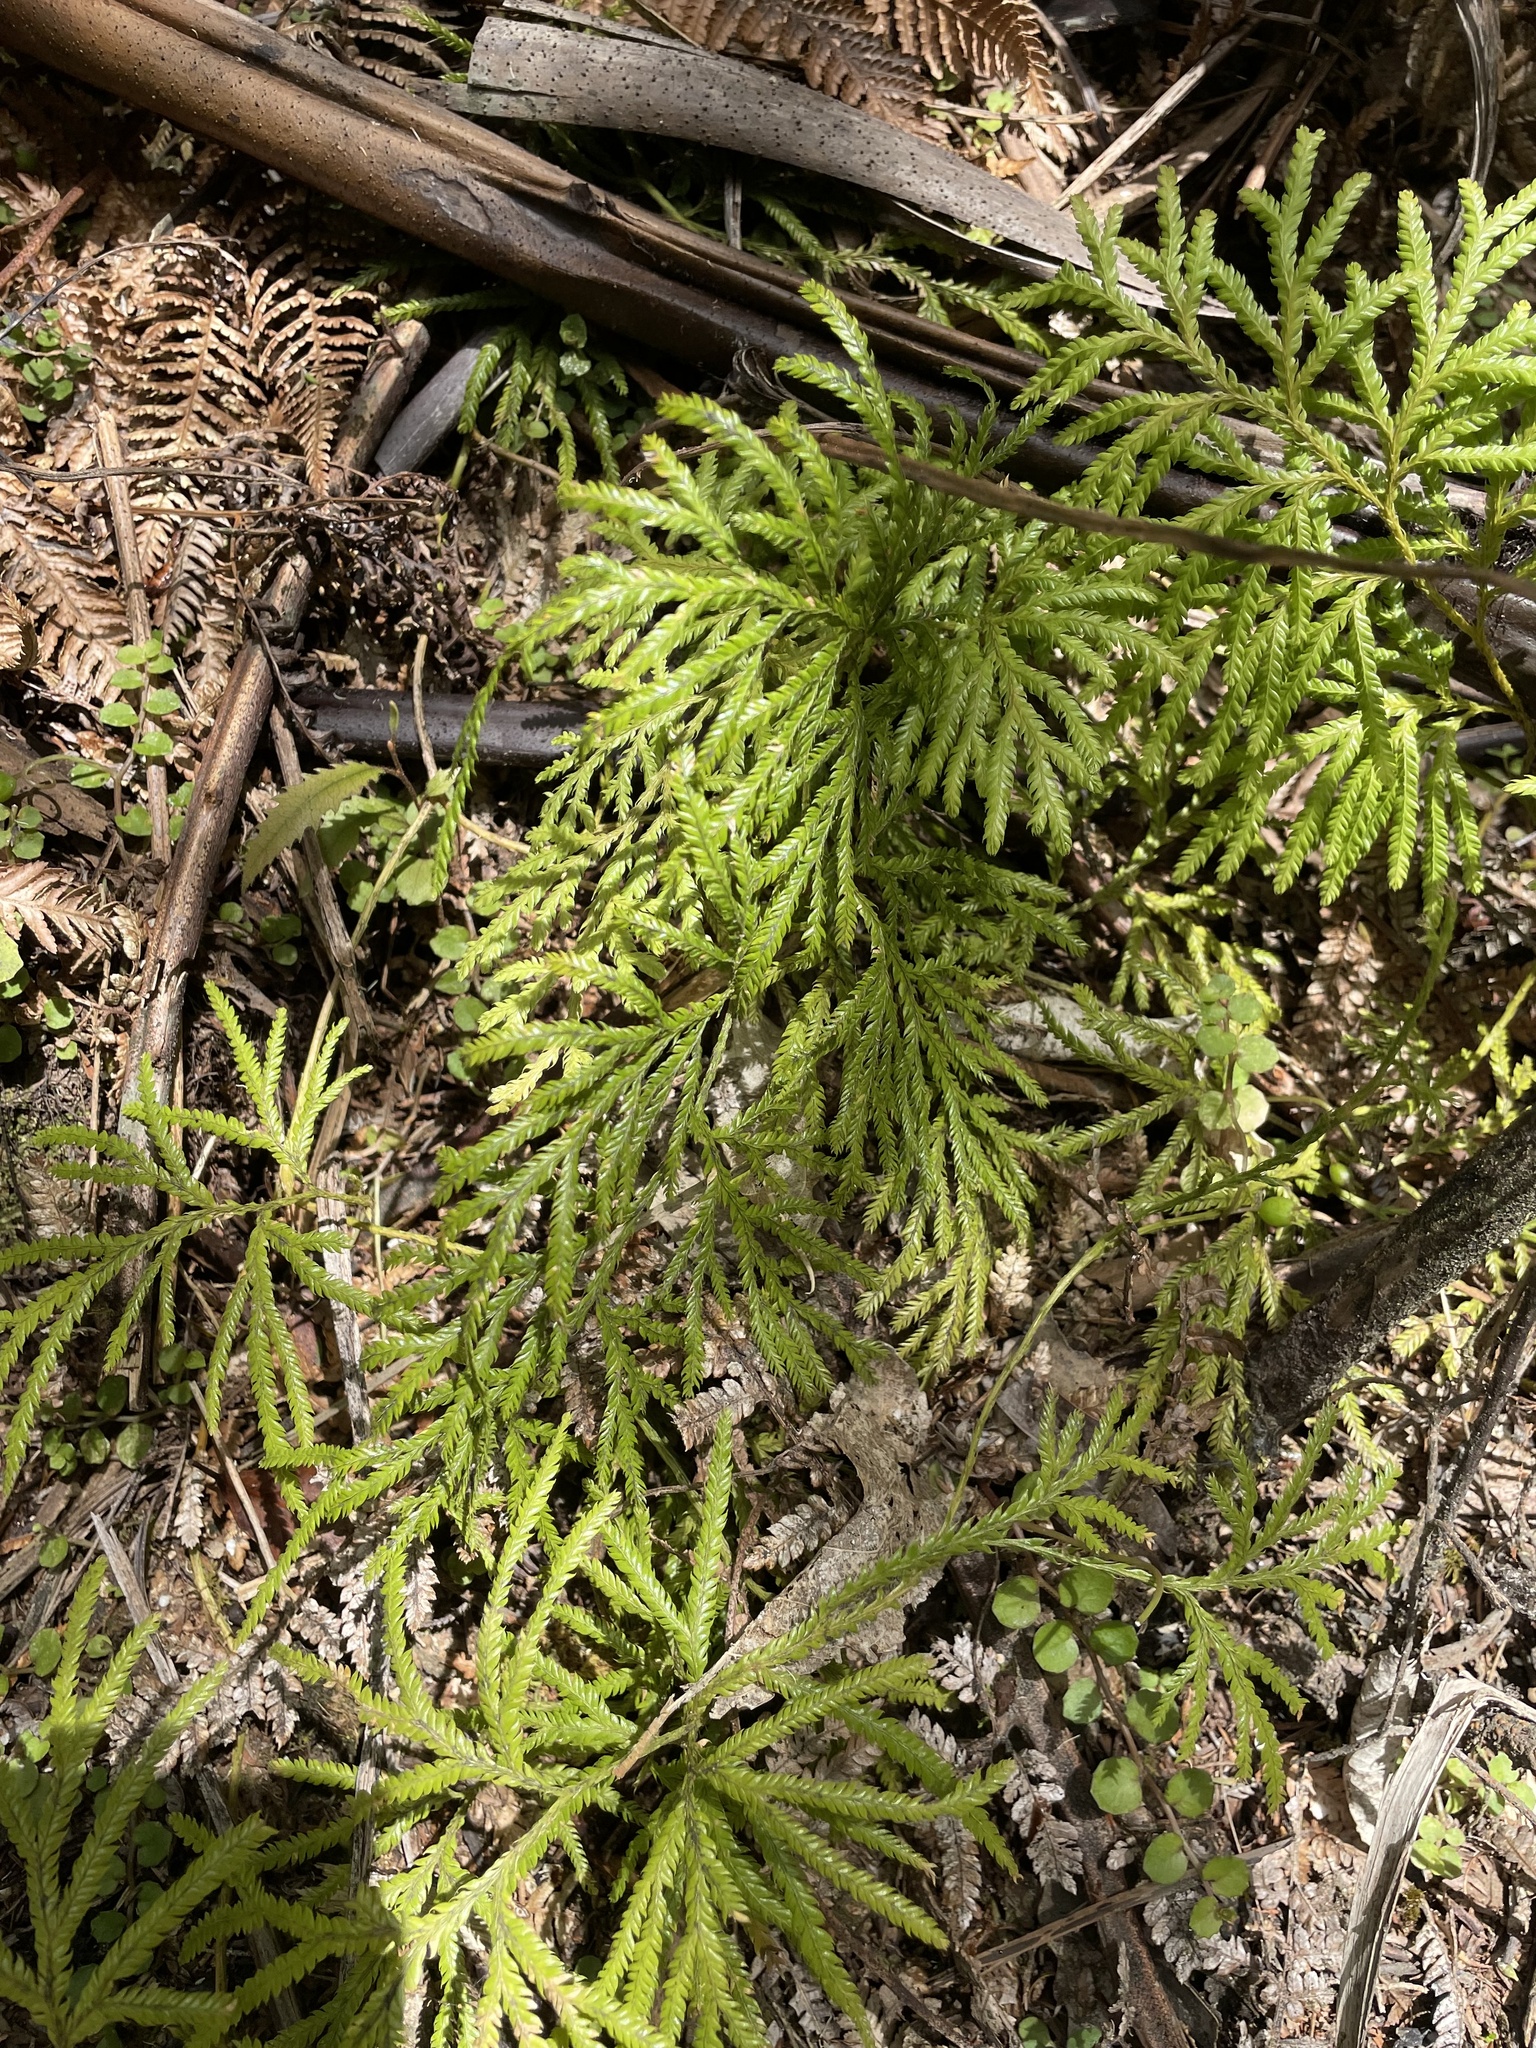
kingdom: Plantae
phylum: Tracheophyta
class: Lycopodiopsida
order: Lycopodiales
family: Lycopodiaceae
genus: Lycopodium
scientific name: Lycopodium volubile
